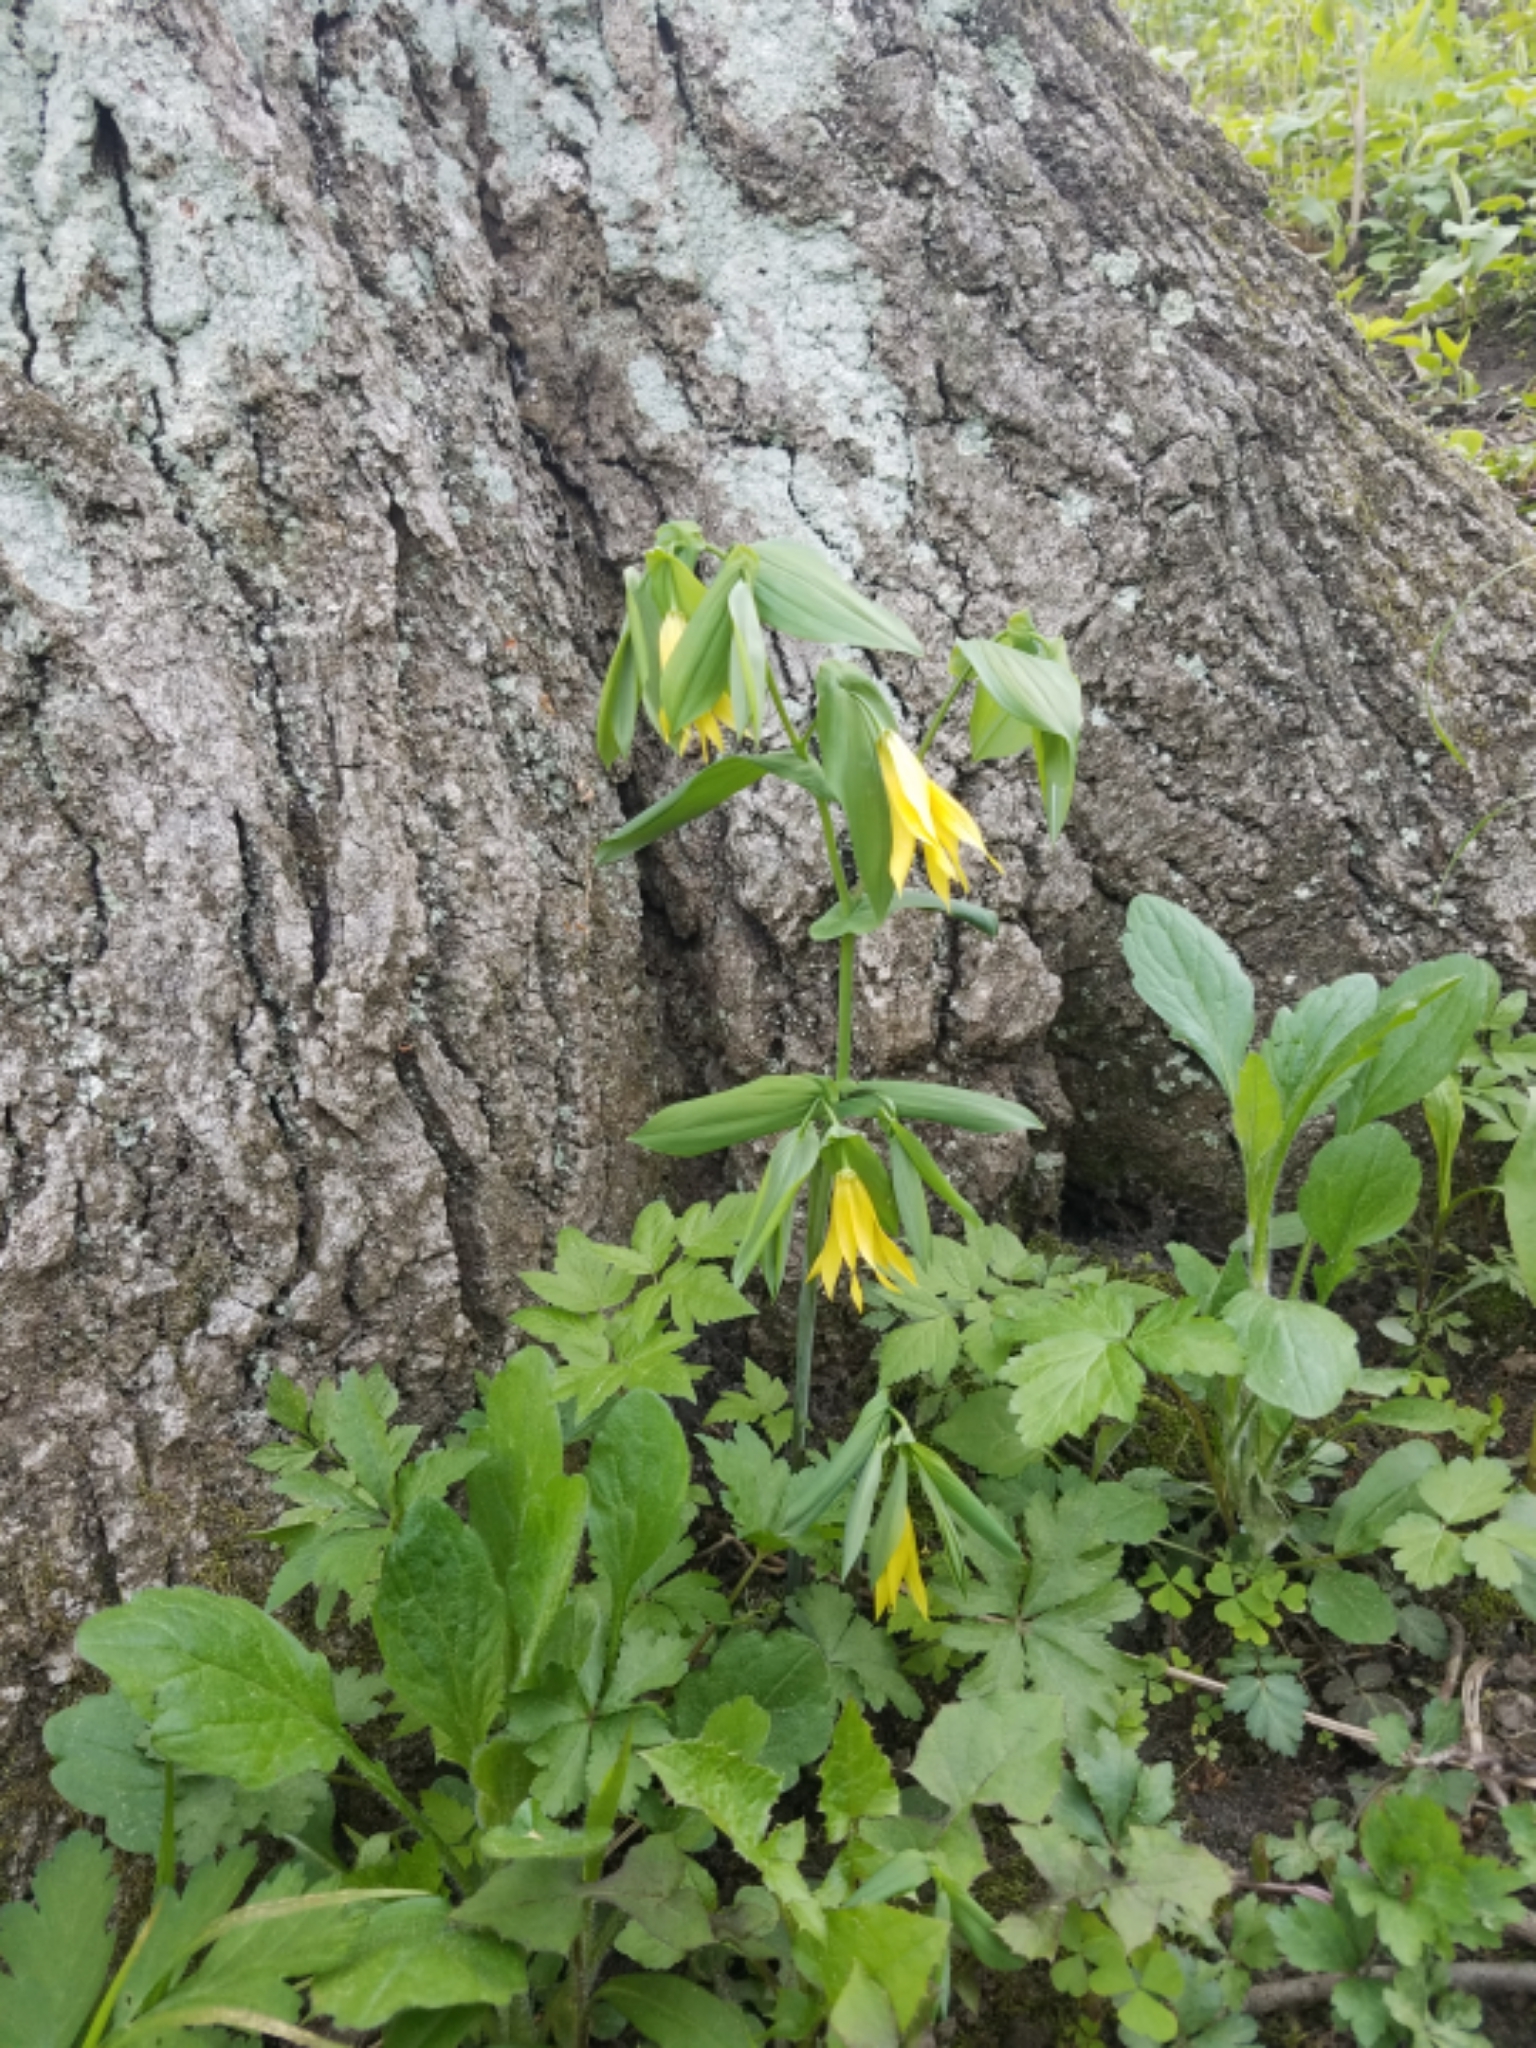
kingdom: Plantae
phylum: Tracheophyta
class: Liliopsida
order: Liliales
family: Colchicaceae
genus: Uvularia
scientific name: Uvularia grandiflora
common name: Bellwort
